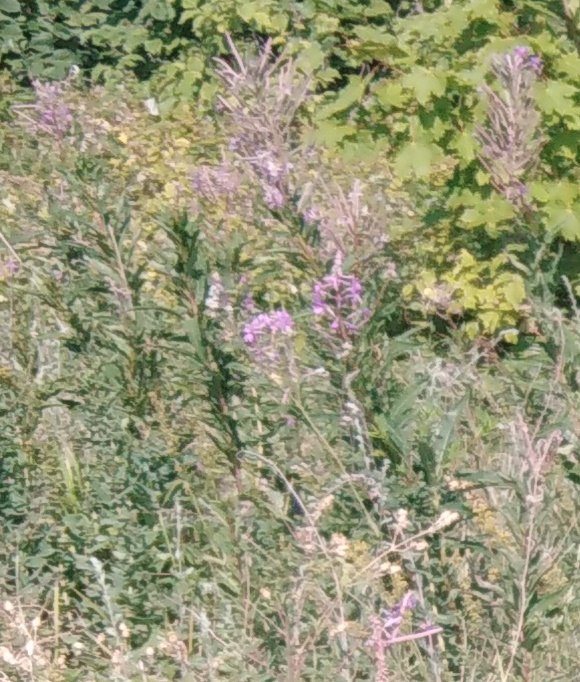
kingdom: Plantae
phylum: Tracheophyta
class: Magnoliopsida
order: Myrtales
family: Onagraceae
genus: Chamaenerion
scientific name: Chamaenerion angustifolium
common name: Fireweed
